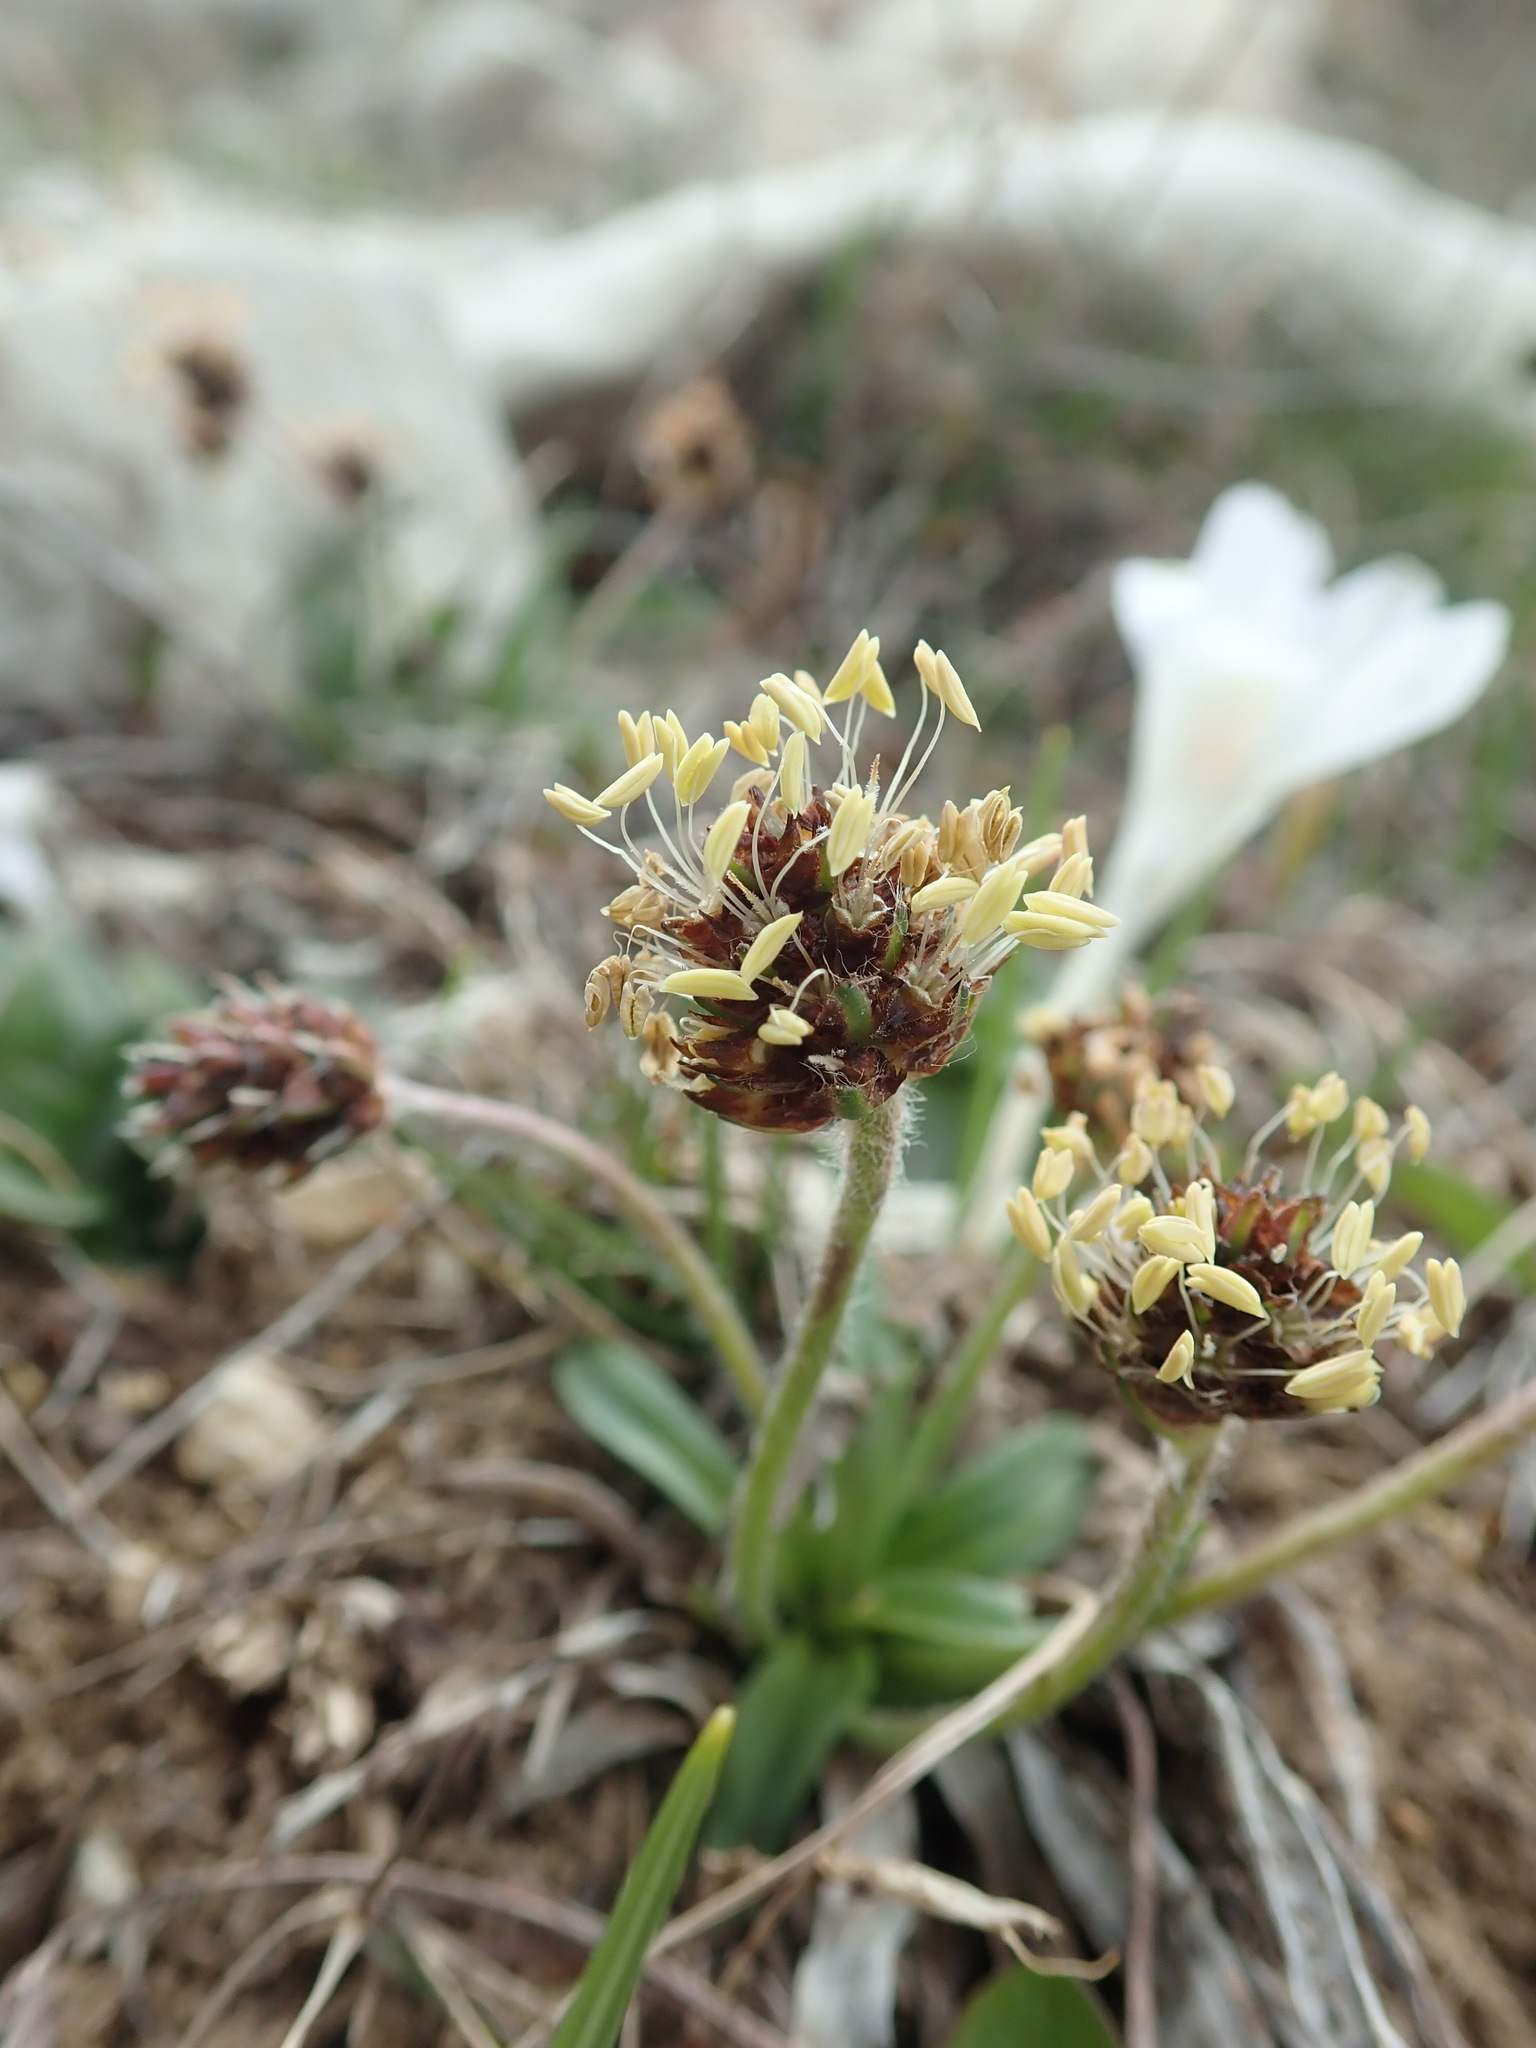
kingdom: Plantae
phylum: Tracheophyta
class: Magnoliopsida
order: Lamiales
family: Plantaginaceae
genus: Plantago
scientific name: Plantago atrata
